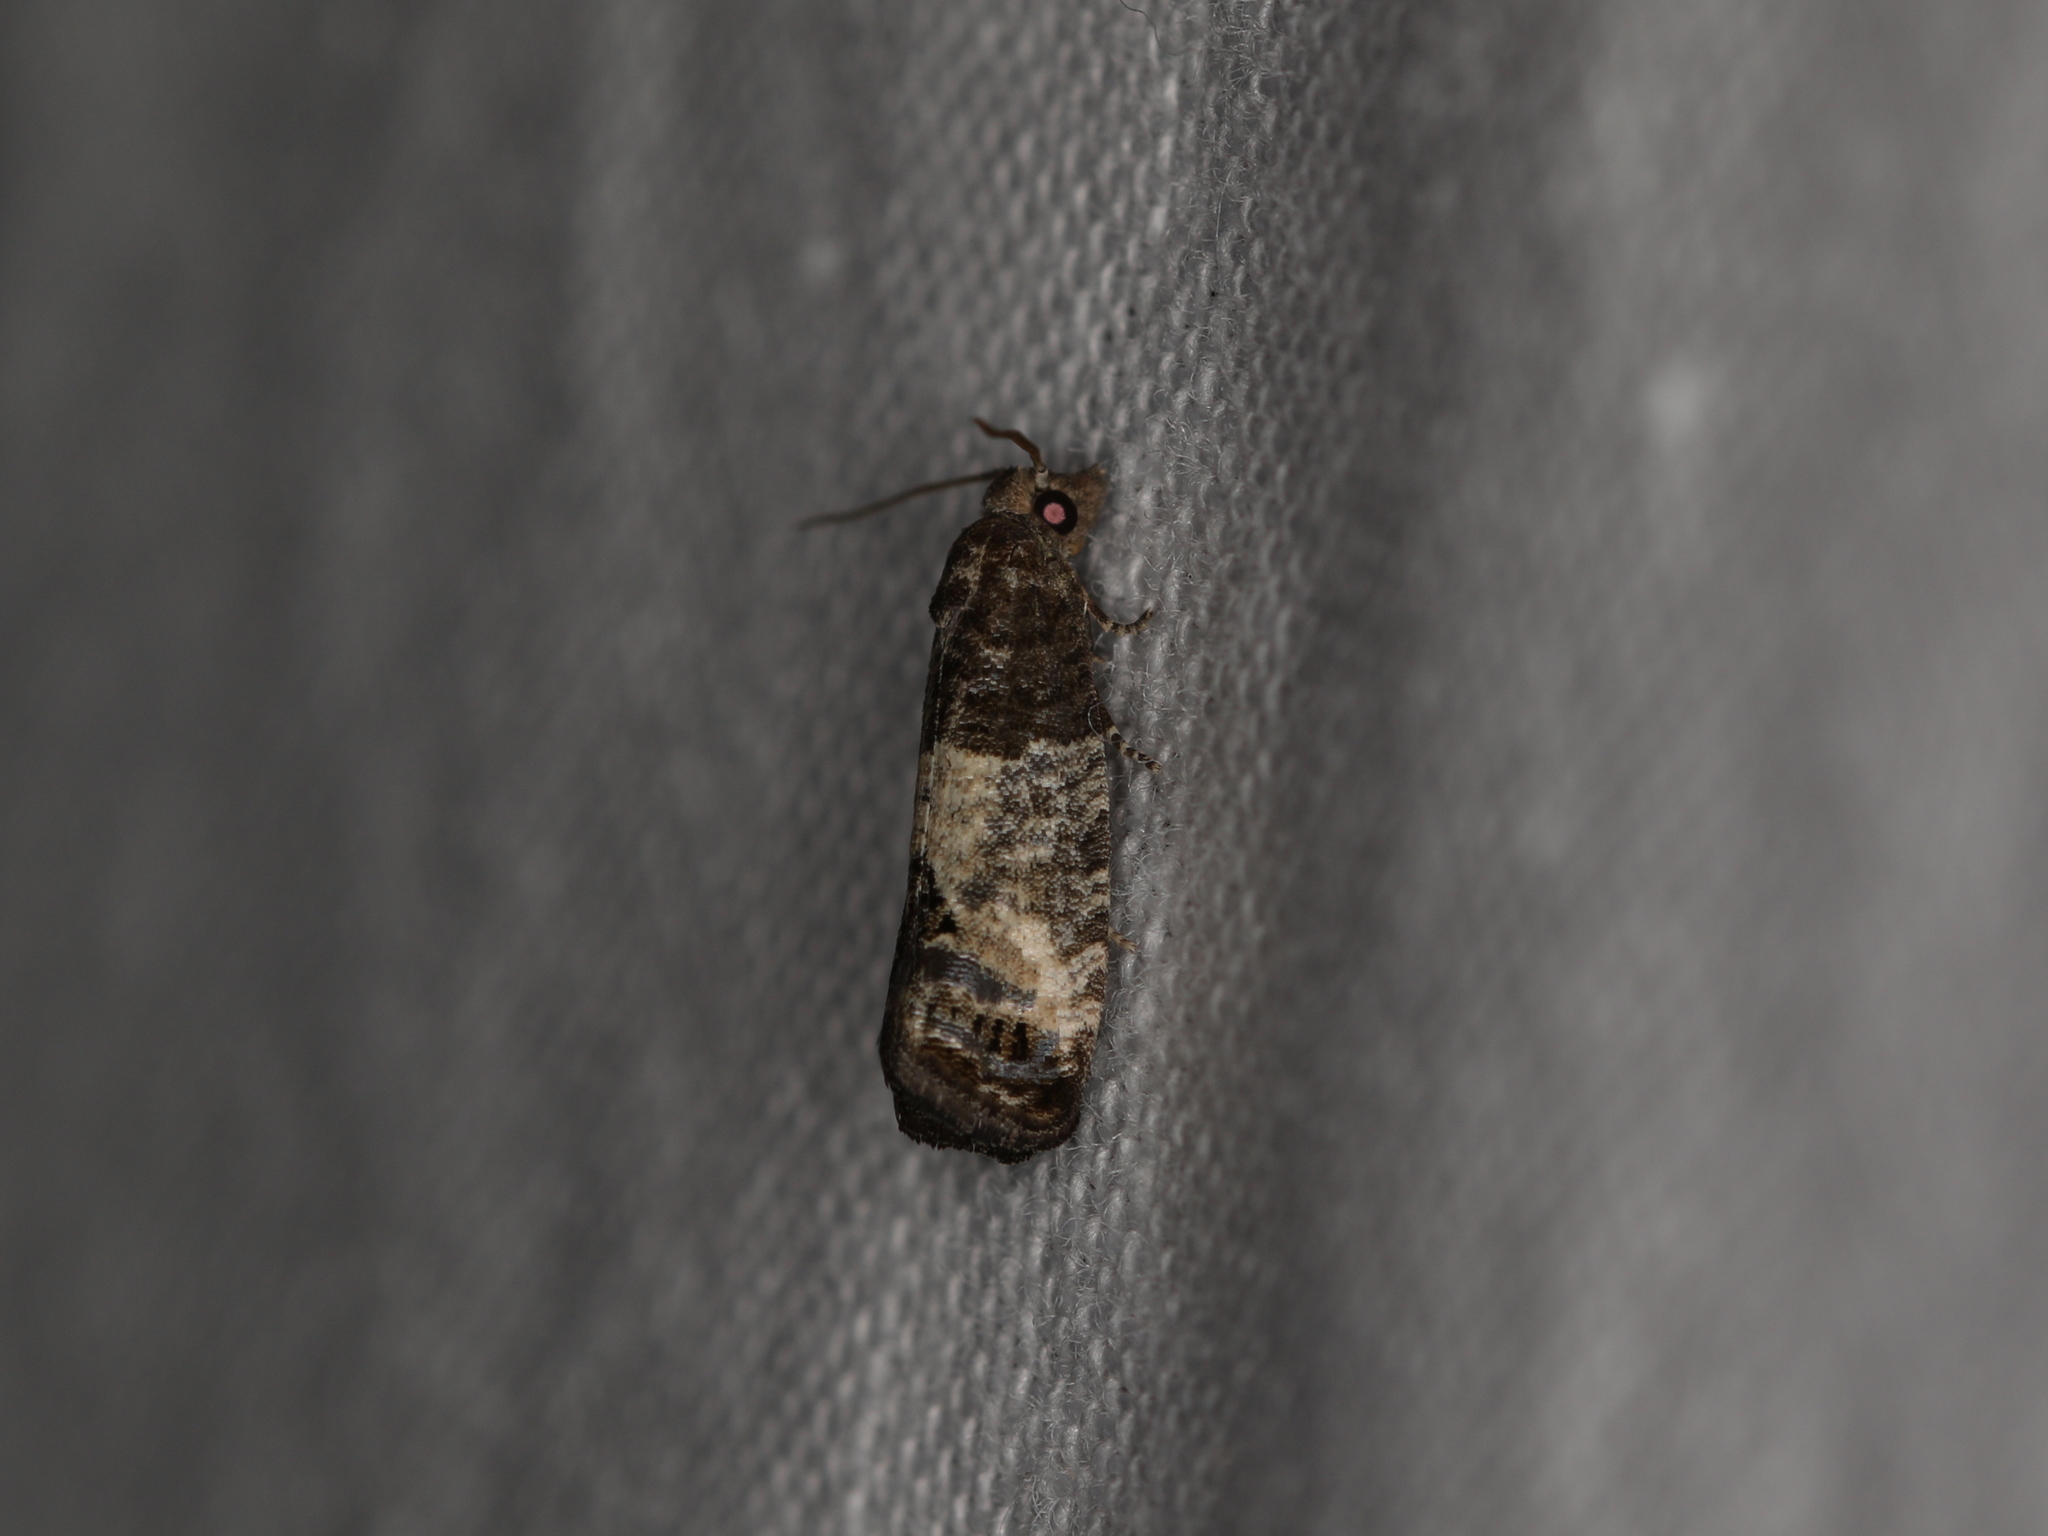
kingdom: Animalia
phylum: Arthropoda
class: Insecta
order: Lepidoptera
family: Tortricidae
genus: Spilonota
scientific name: Spilonota ocellana
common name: Bud moth
